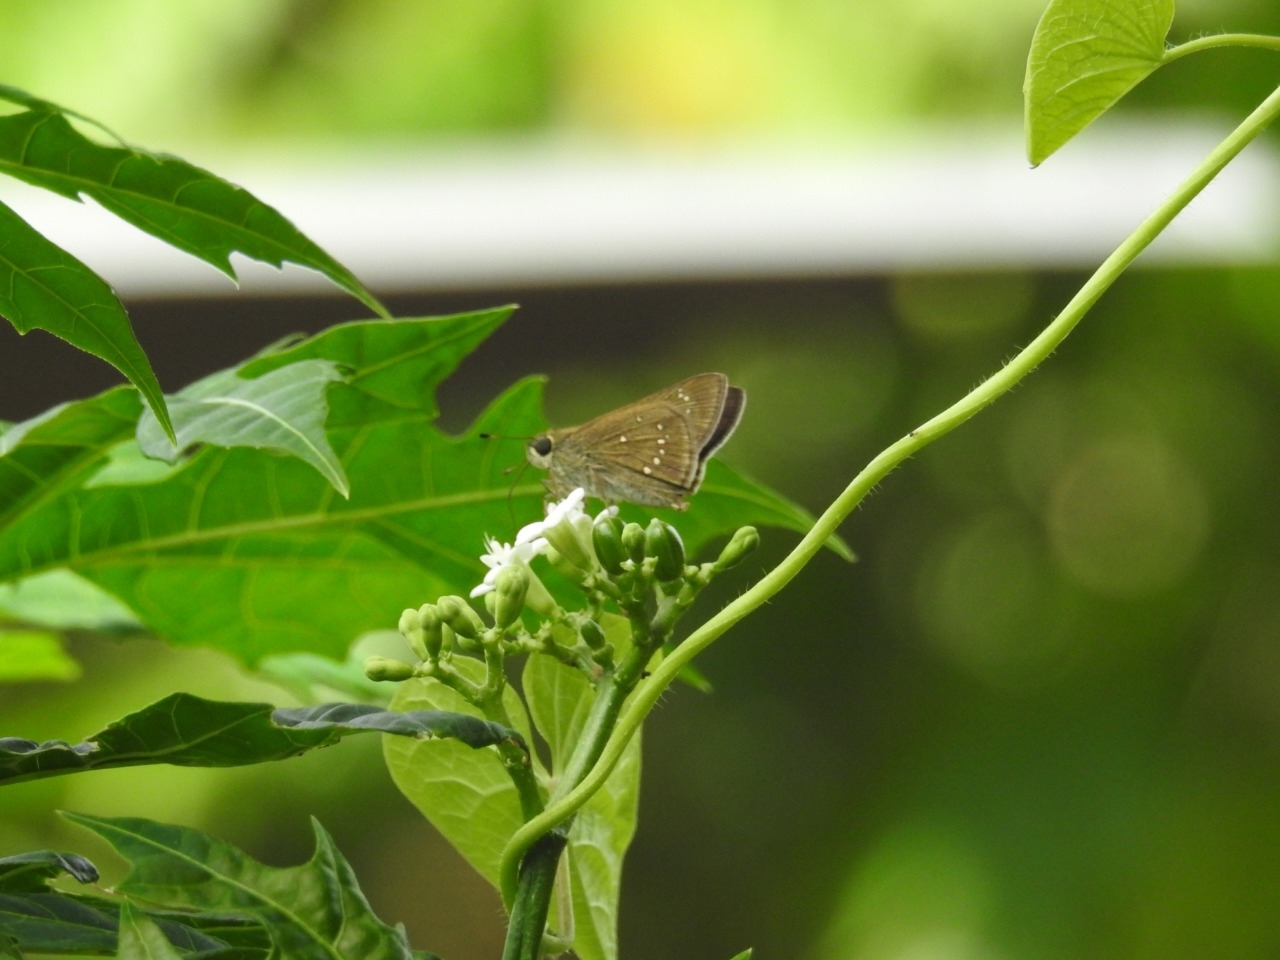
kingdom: Animalia
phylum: Arthropoda
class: Insecta
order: Lepidoptera
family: Hesperiidae
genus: Borbo
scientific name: Borbo cinnara
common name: Formosan swift
